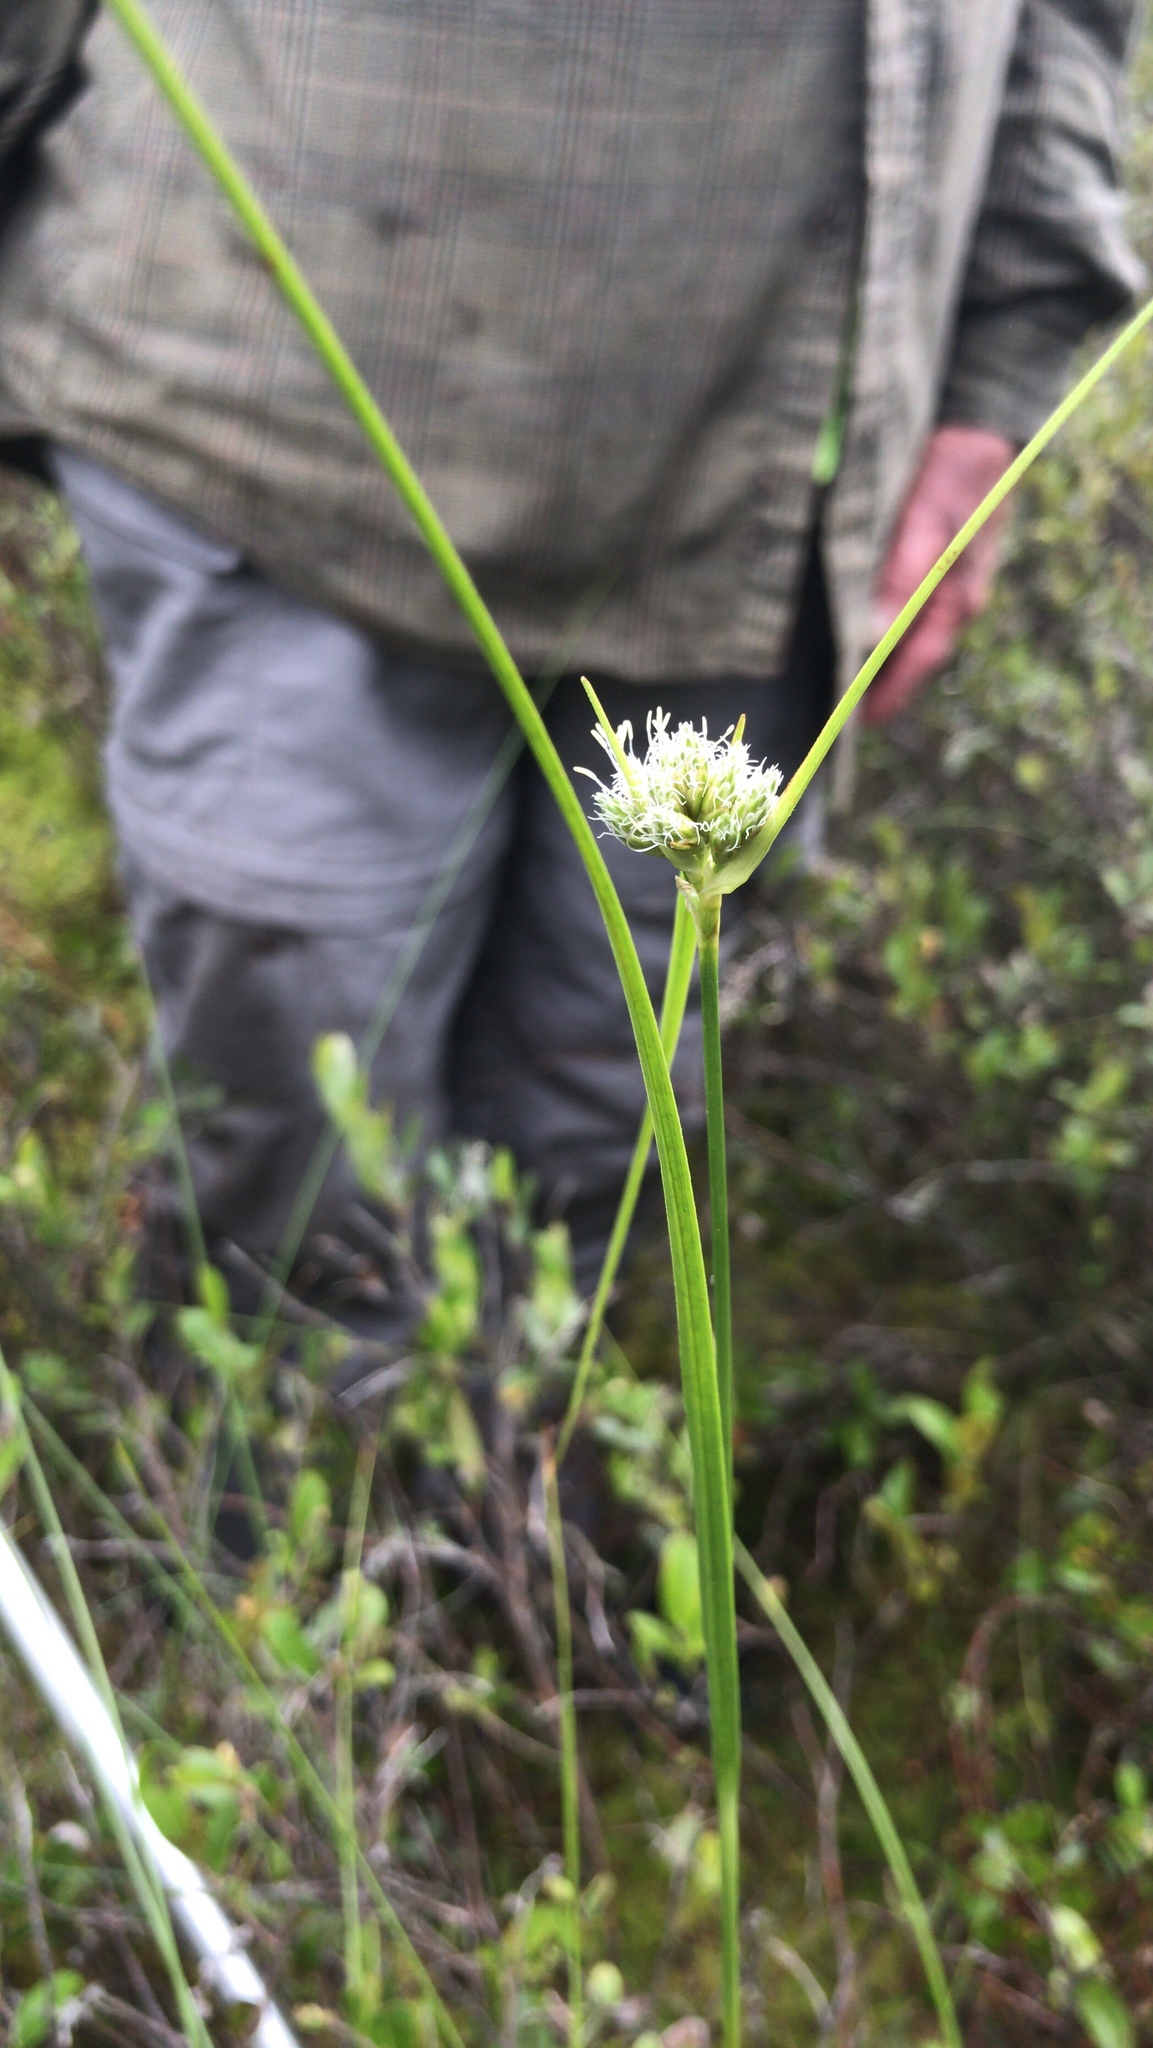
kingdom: Plantae
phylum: Tracheophyta
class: Liliopsida
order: Poales
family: Cyperaceae
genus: Eriophorum
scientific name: Eriophorum virginicum
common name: Tawny cottongrass
